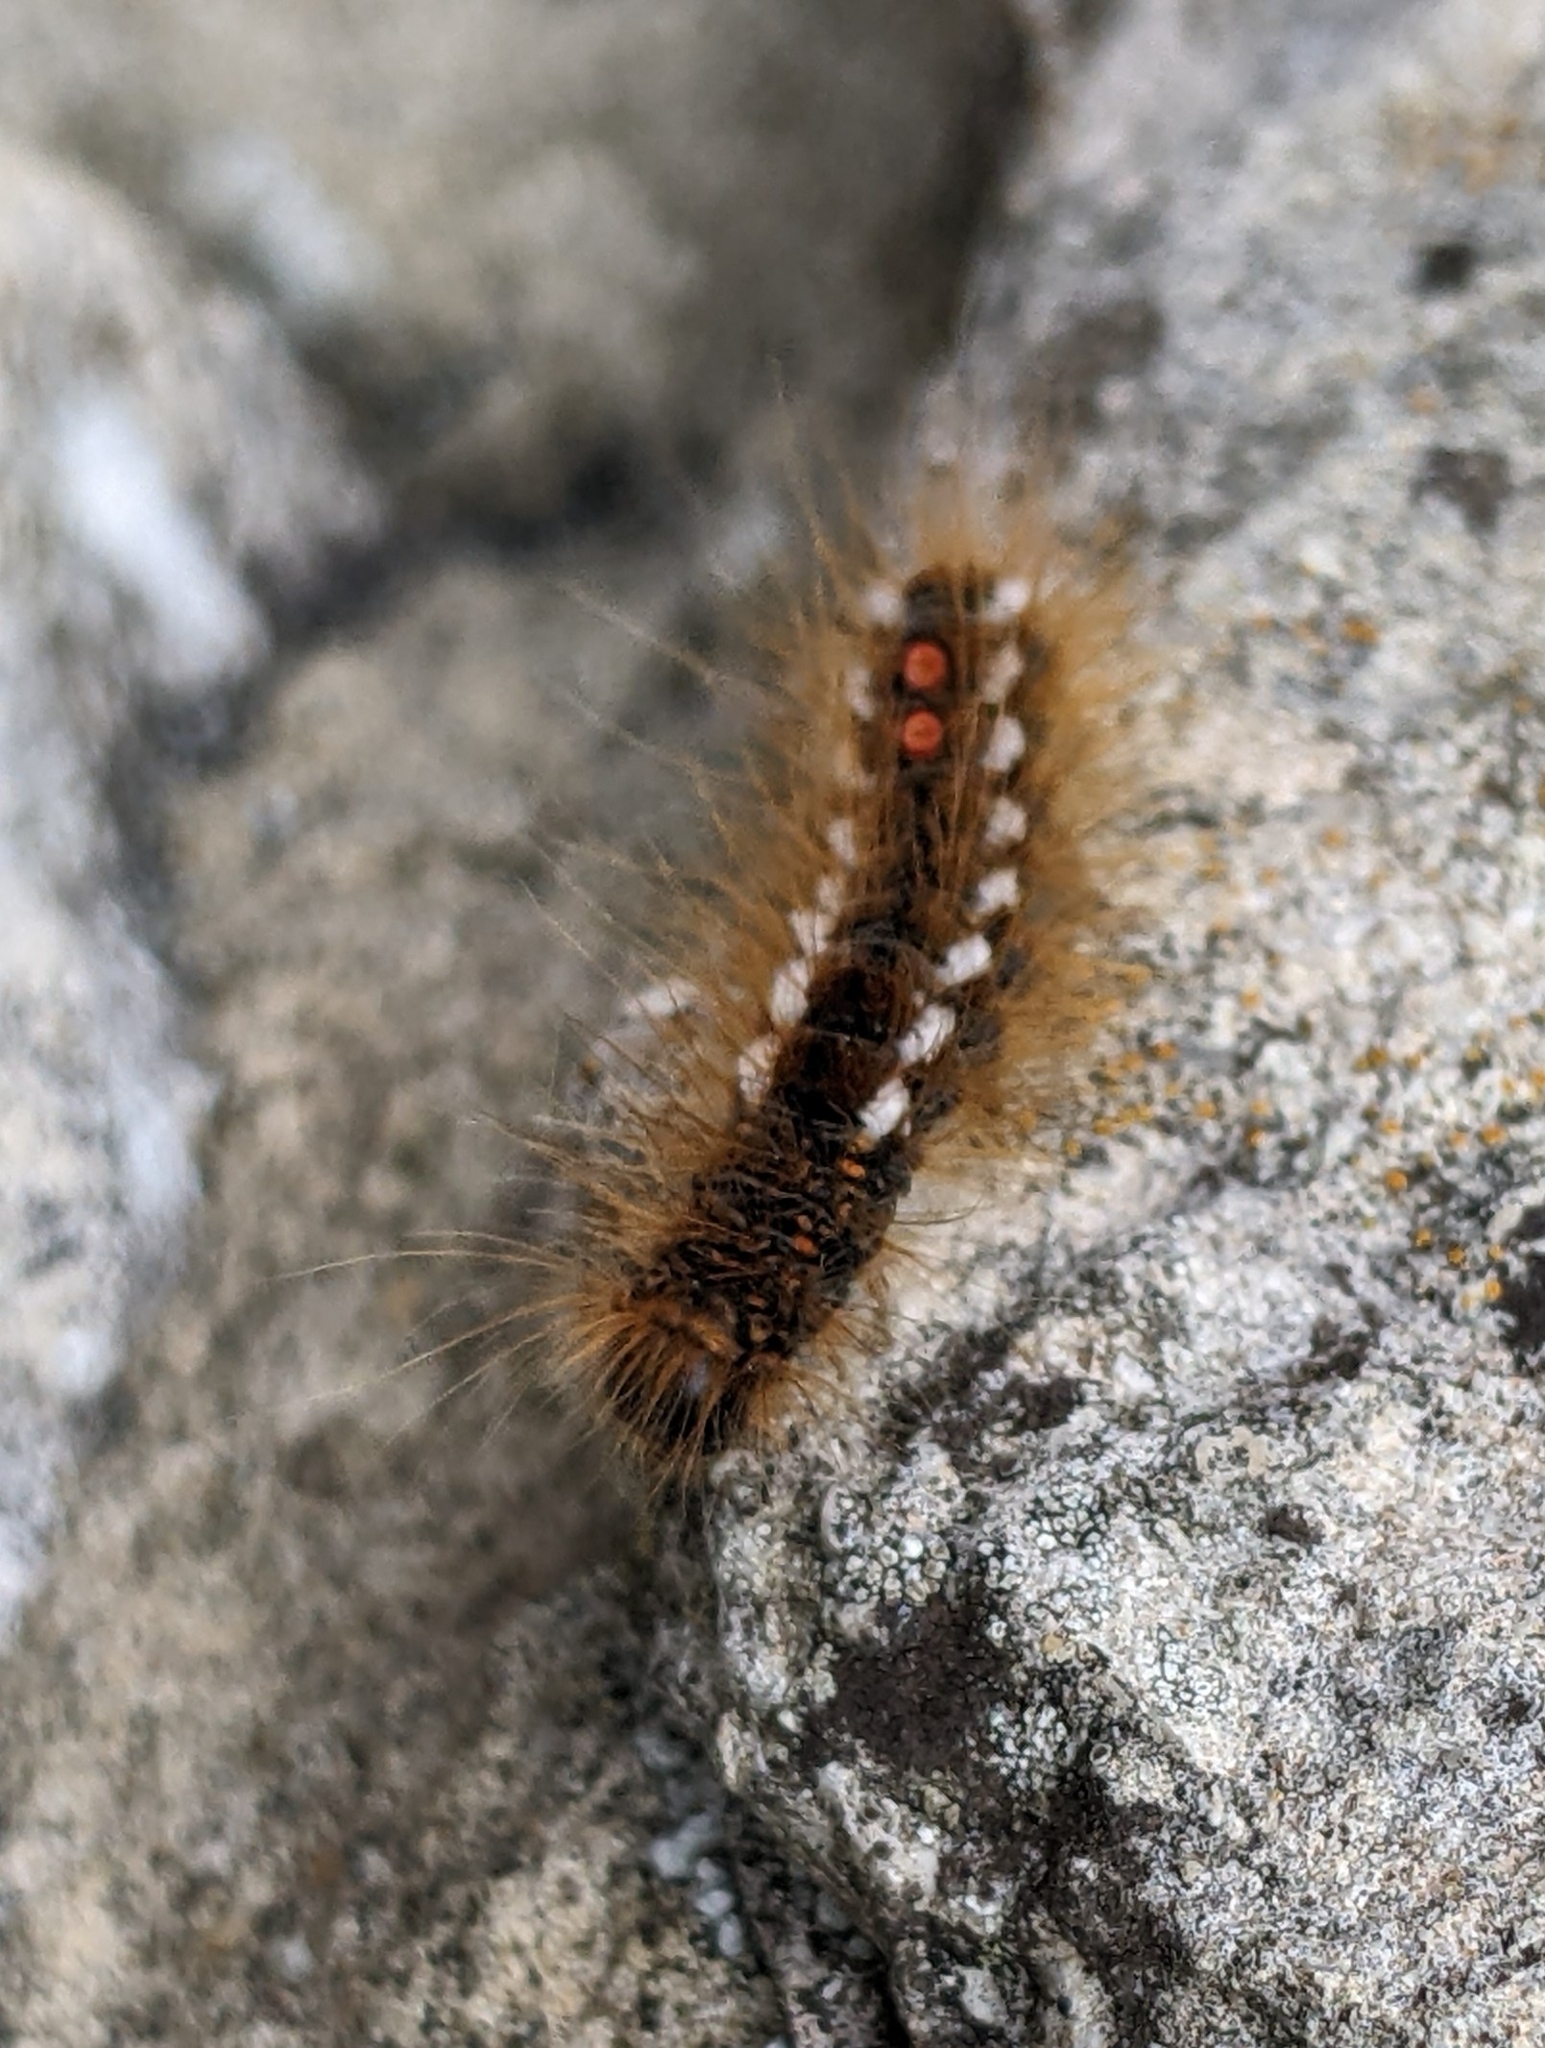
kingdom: Animalia
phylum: Arthropoda
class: Insecta
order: Lepidoptera
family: Erebidae
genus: Euproctis
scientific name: Euproctis chrysorrhoea
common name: Brown-tail
